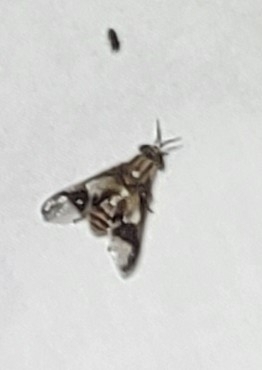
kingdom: Animalia
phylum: Arthropoda
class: Insecta
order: Diptera
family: Tabanidae
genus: Chrysops
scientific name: Chrysops vittatus
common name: Striped deer fly
